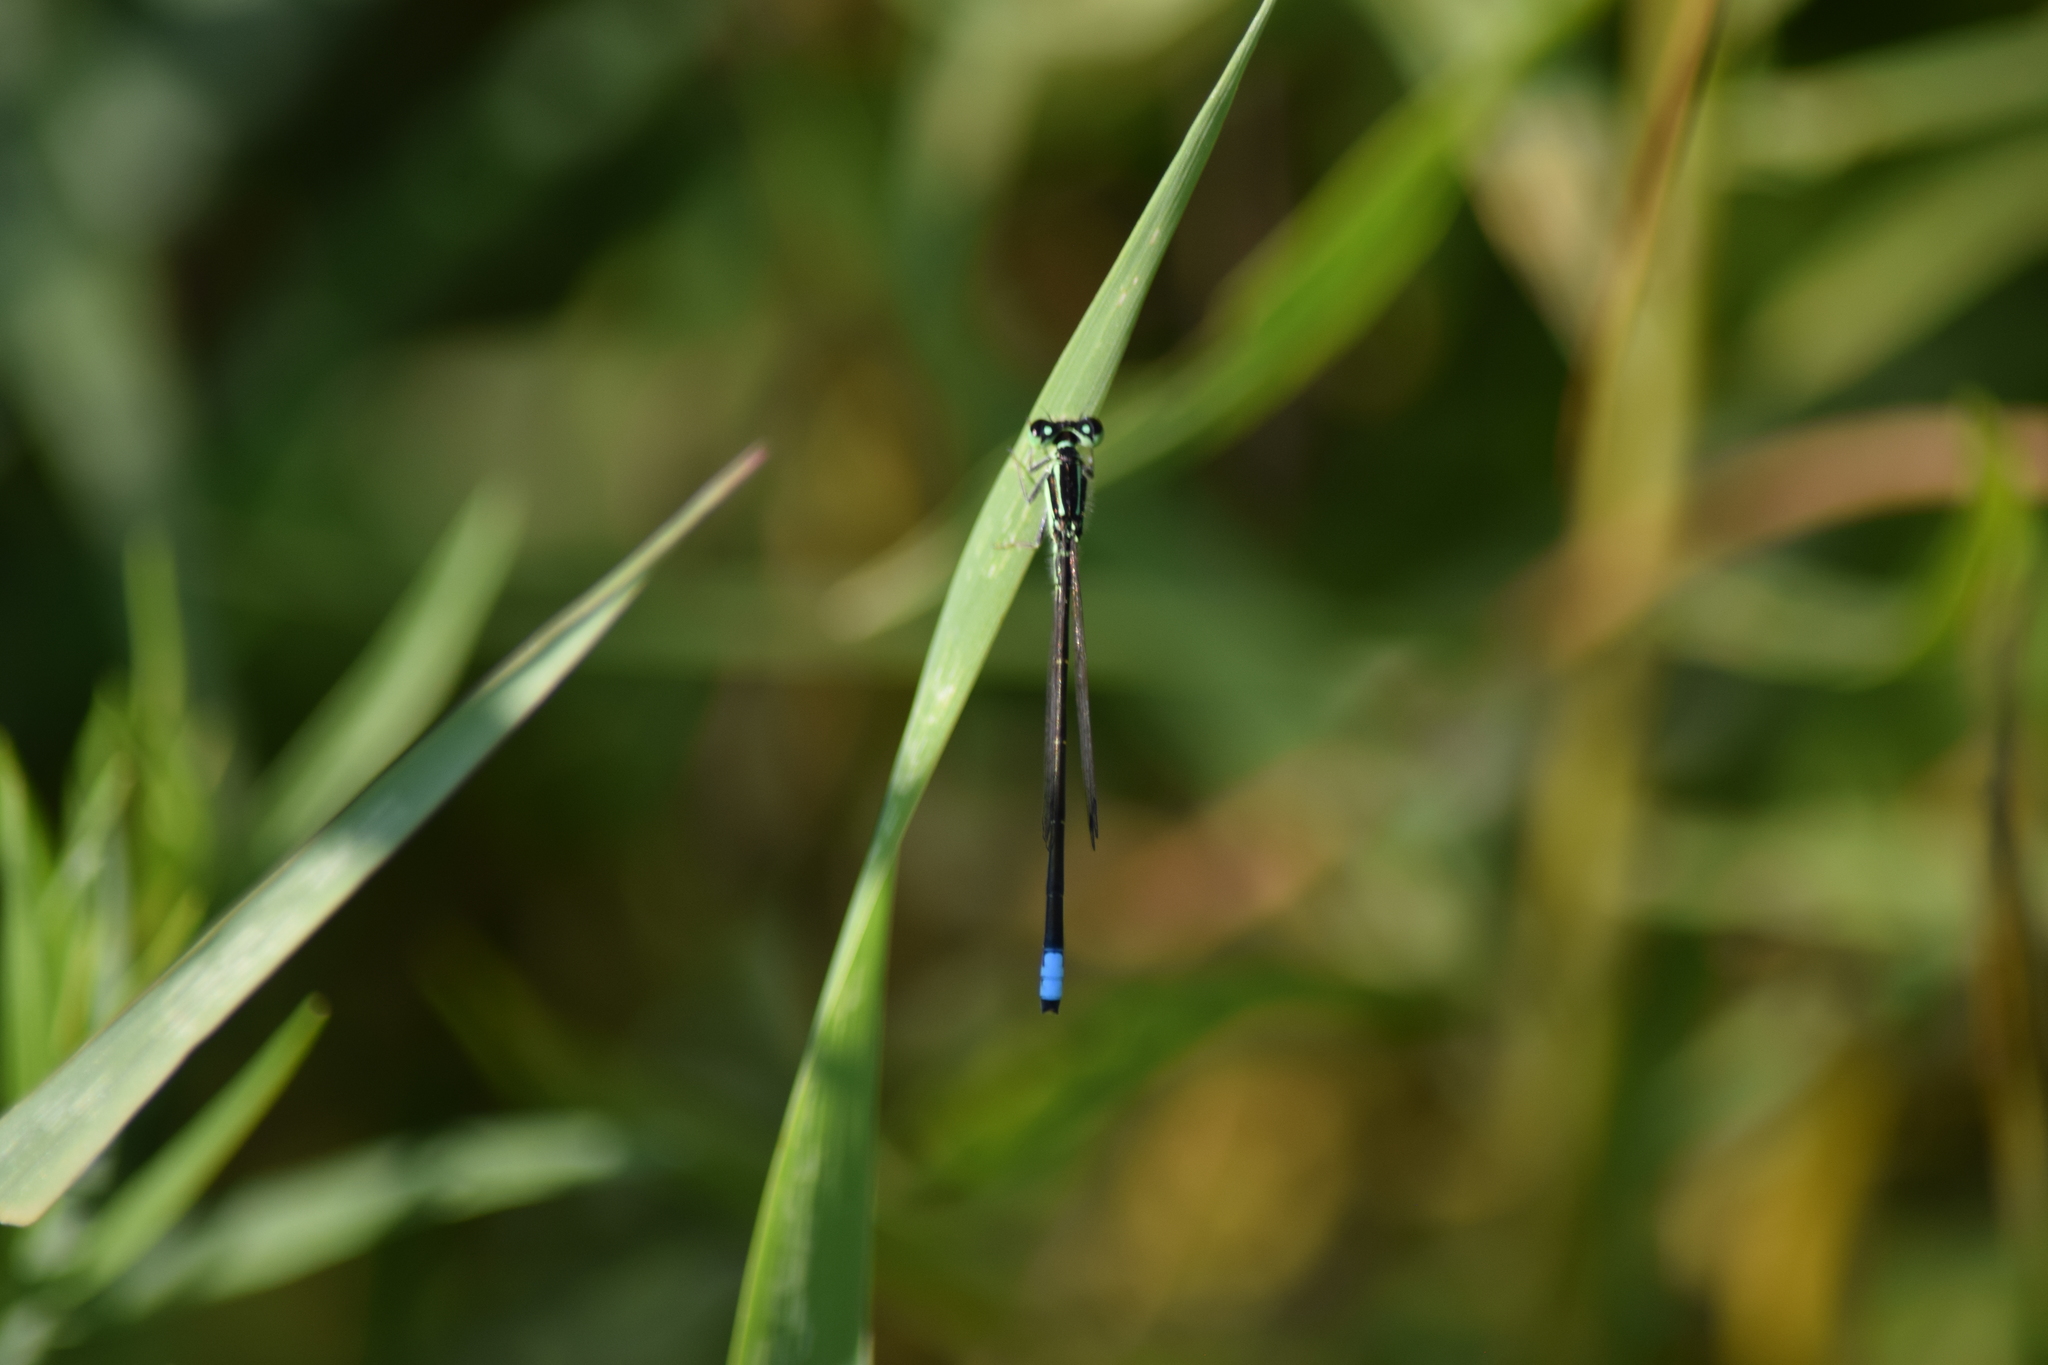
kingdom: Animalia
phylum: Arthropoda
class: Insecta
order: Odonata
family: Coenagrionidae
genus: Ischnura
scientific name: Ischnura verticalis
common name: Eastern forktail
